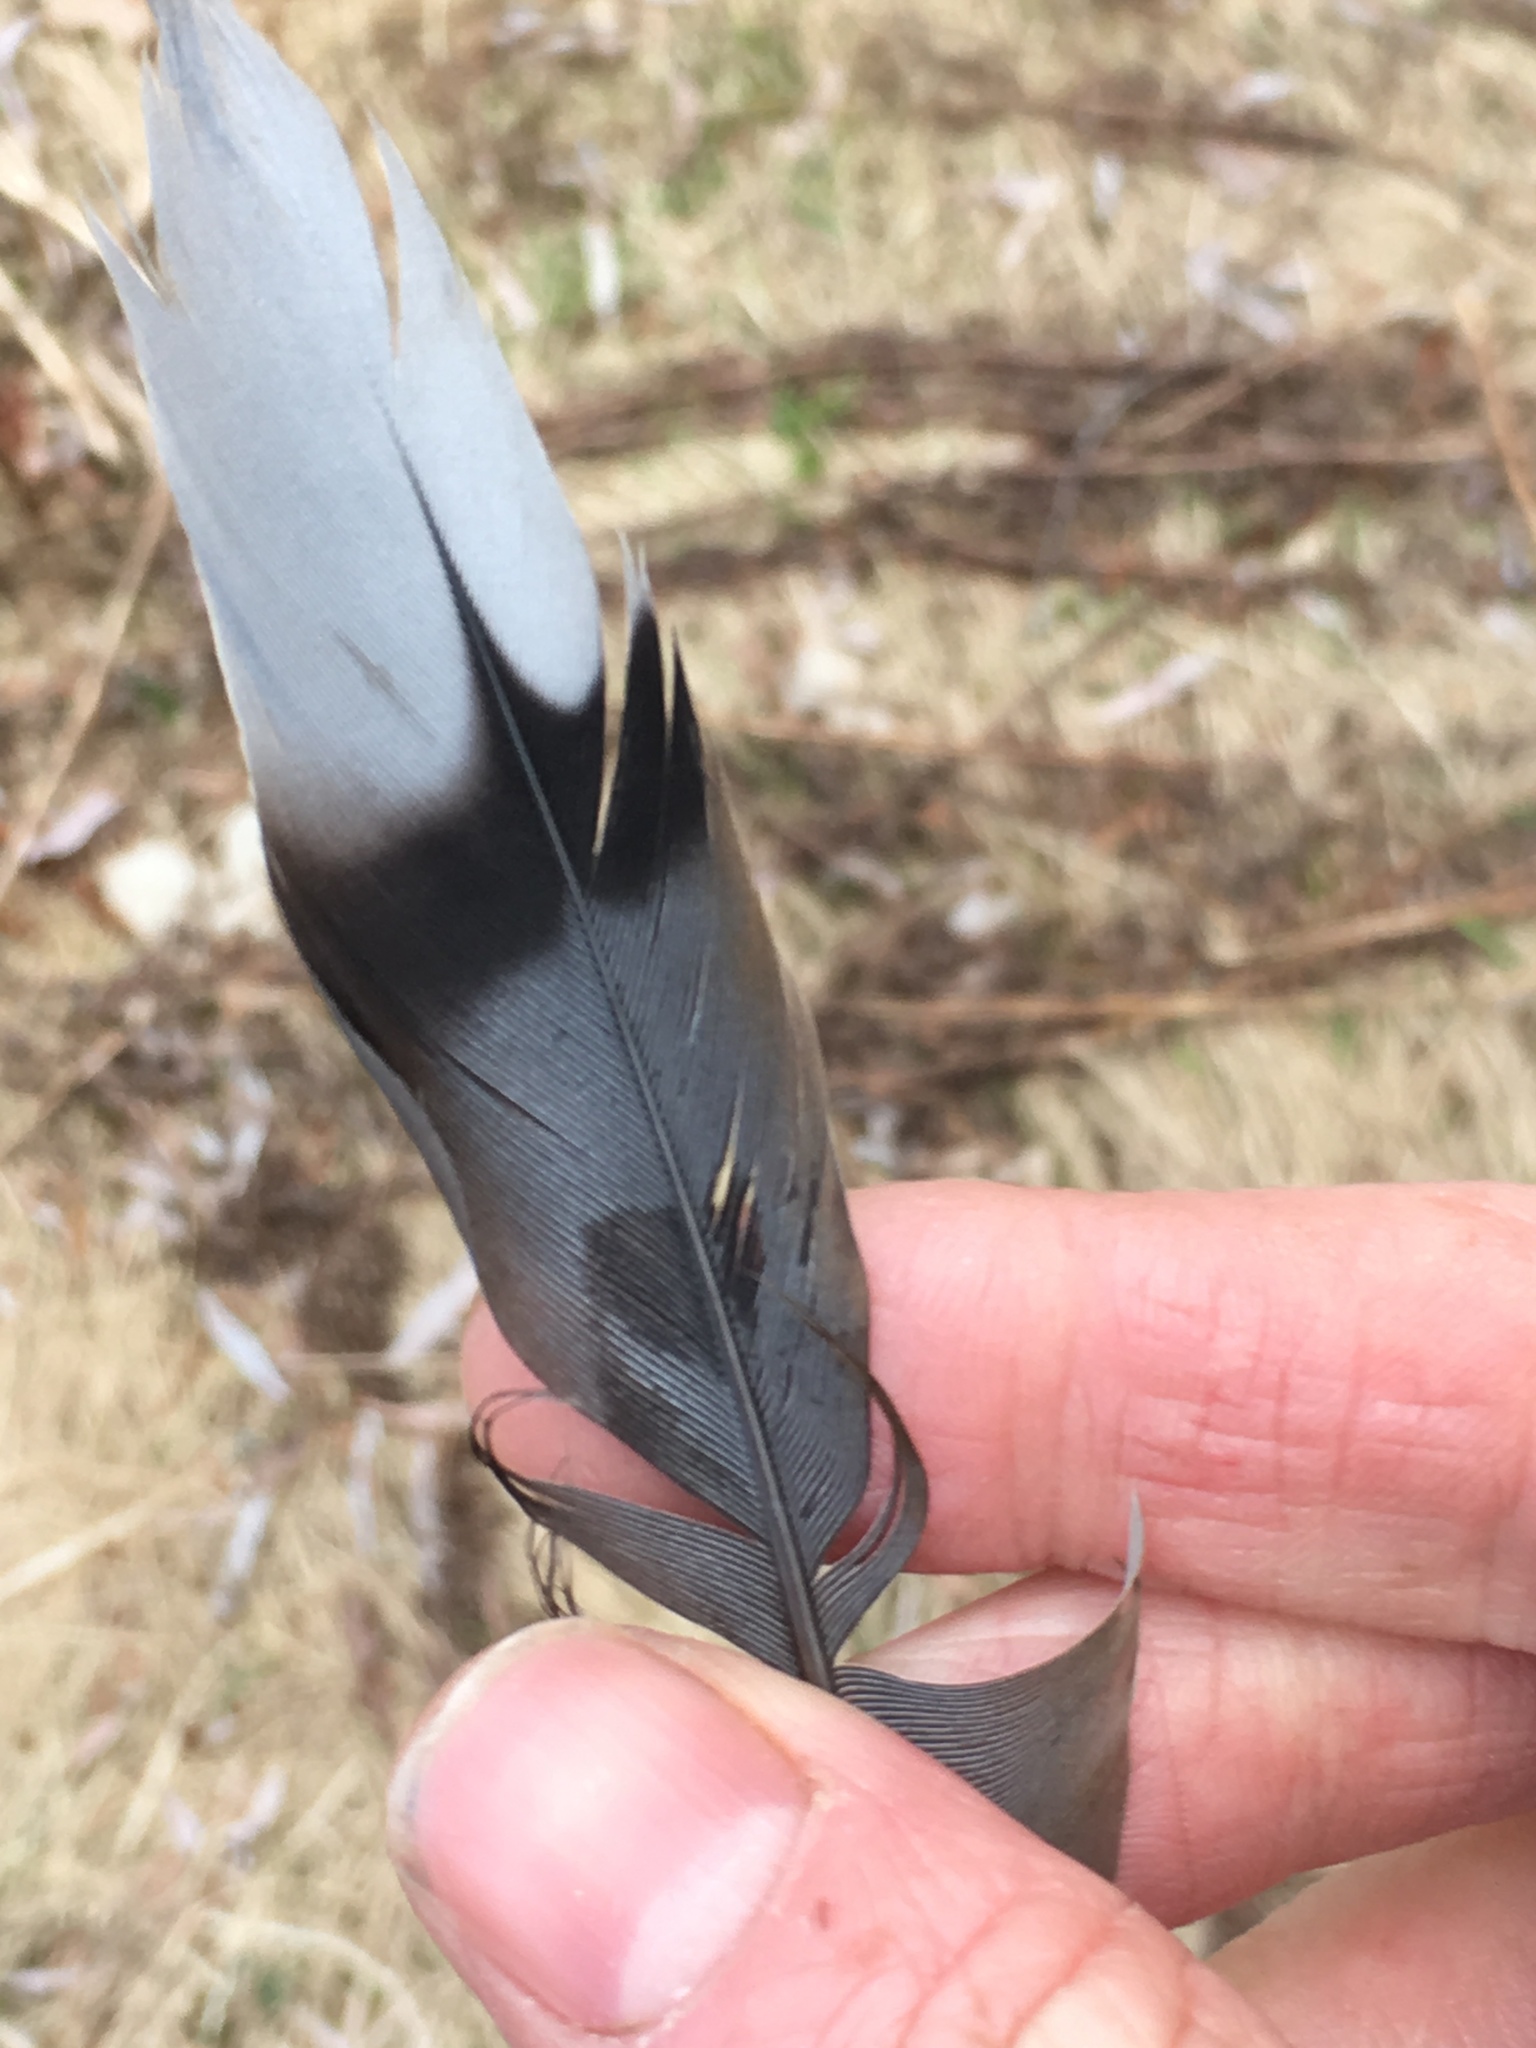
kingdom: Animalia
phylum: Chordata
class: Aves
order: Columbiformes
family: Columbidae
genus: Zenaida
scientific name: Zenaida macroura
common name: Mourning dove
